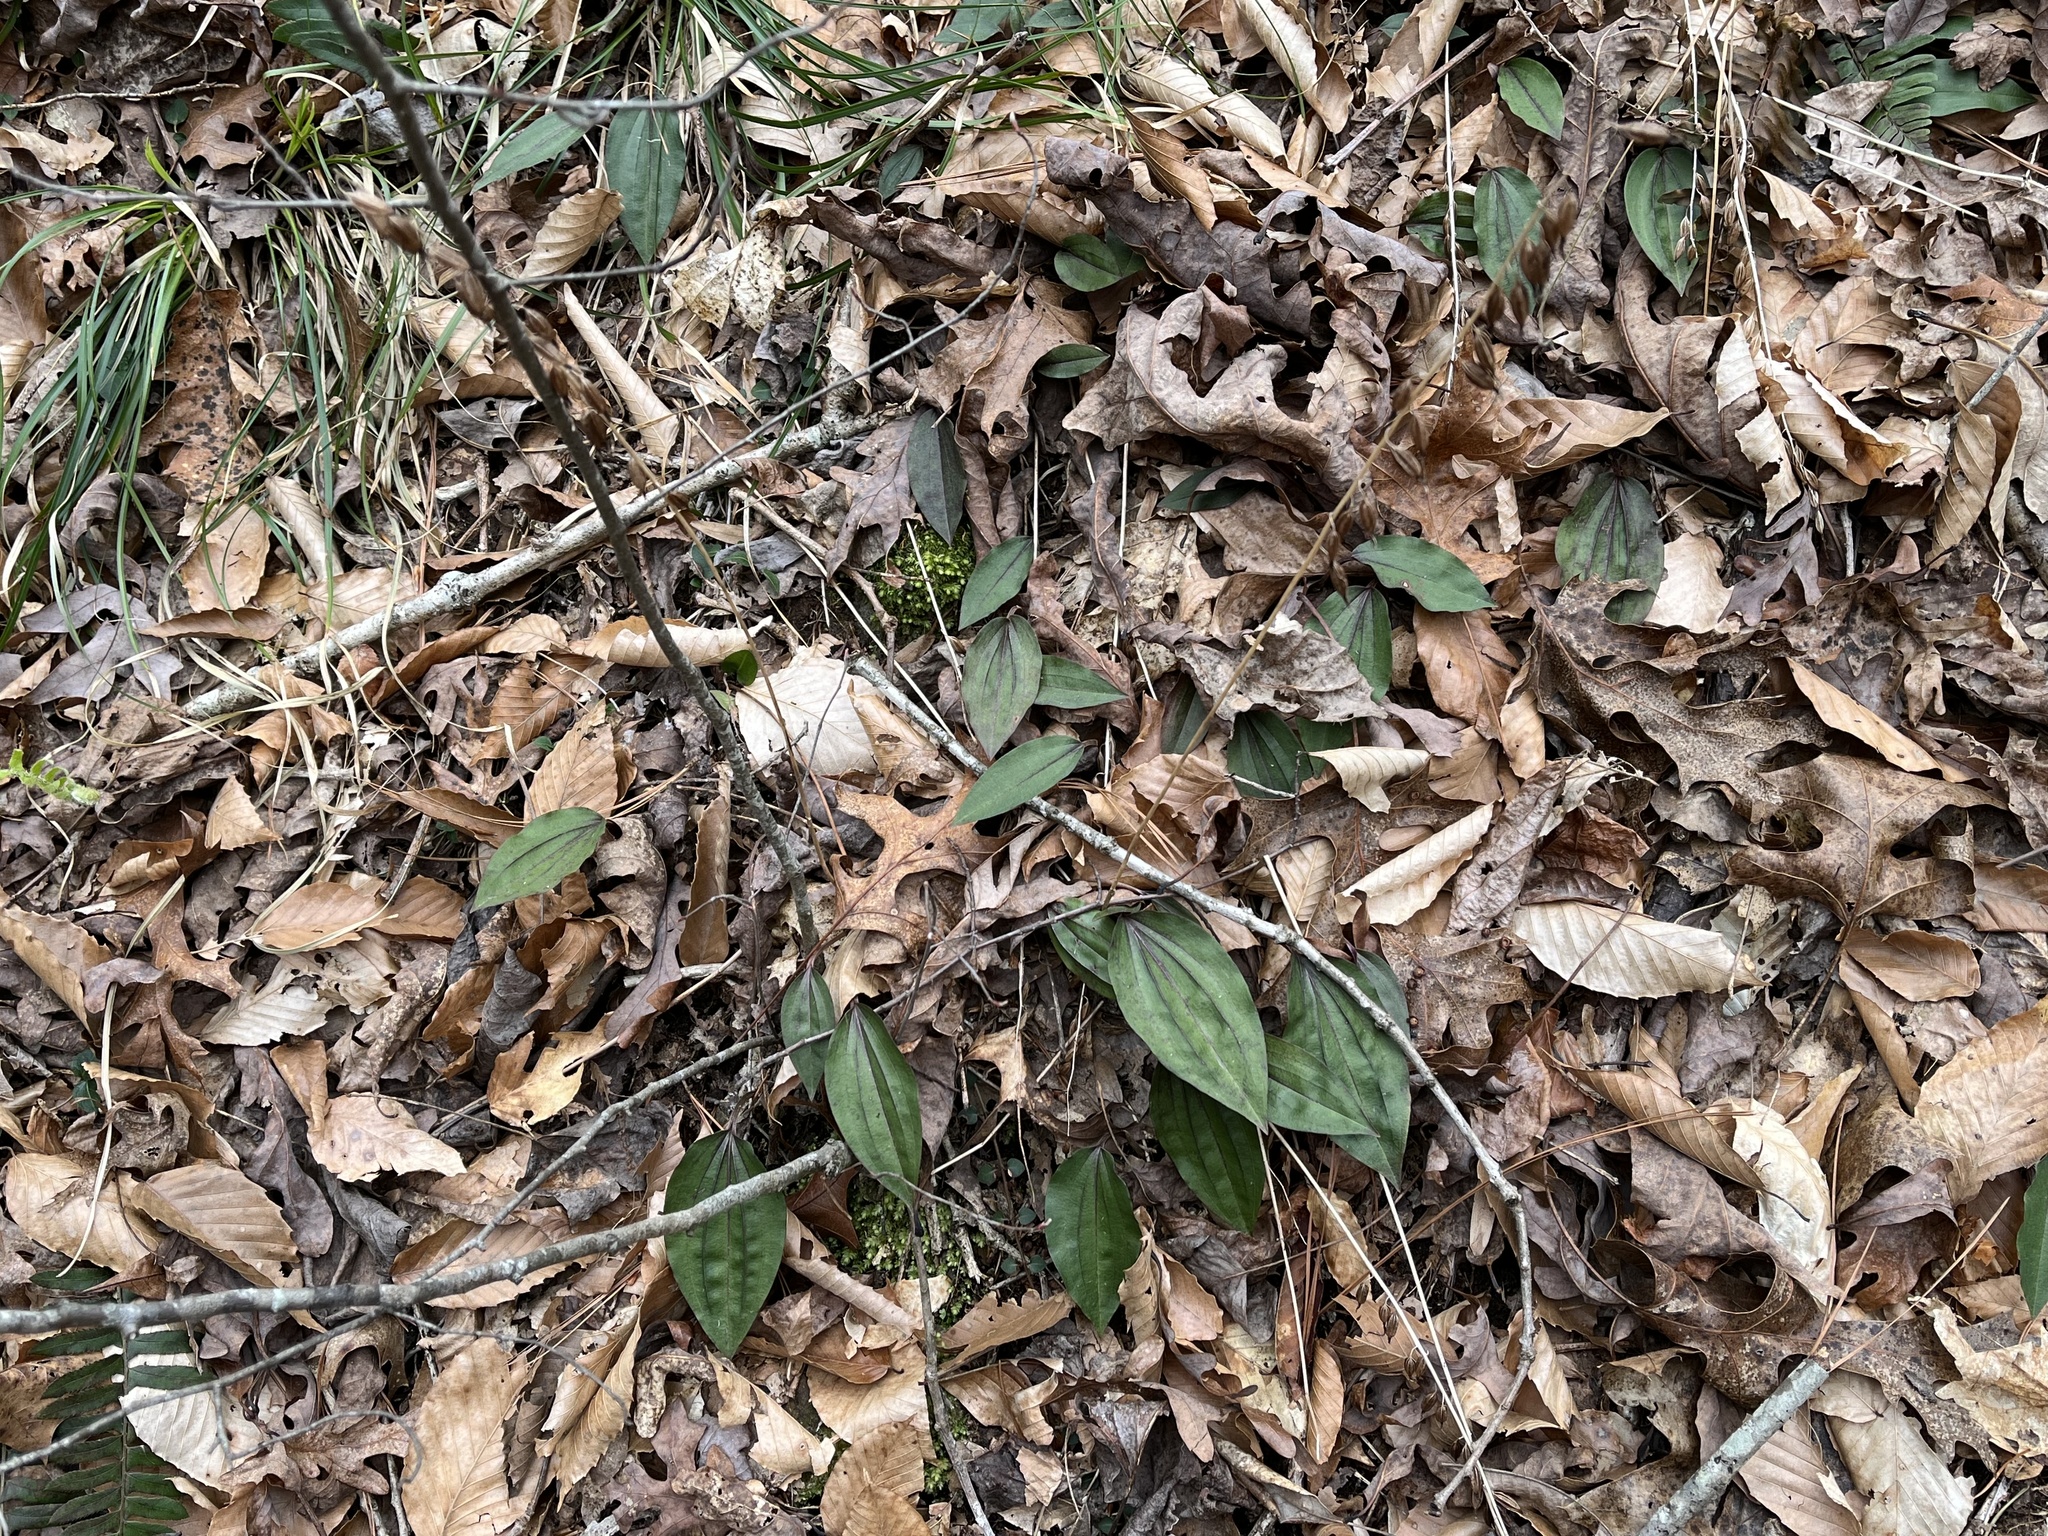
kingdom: Plantae
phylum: Tracheophyta
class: Liliopsida
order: Asparagales
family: Orchidaceae
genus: Tipularia
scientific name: Tipularia discolor
